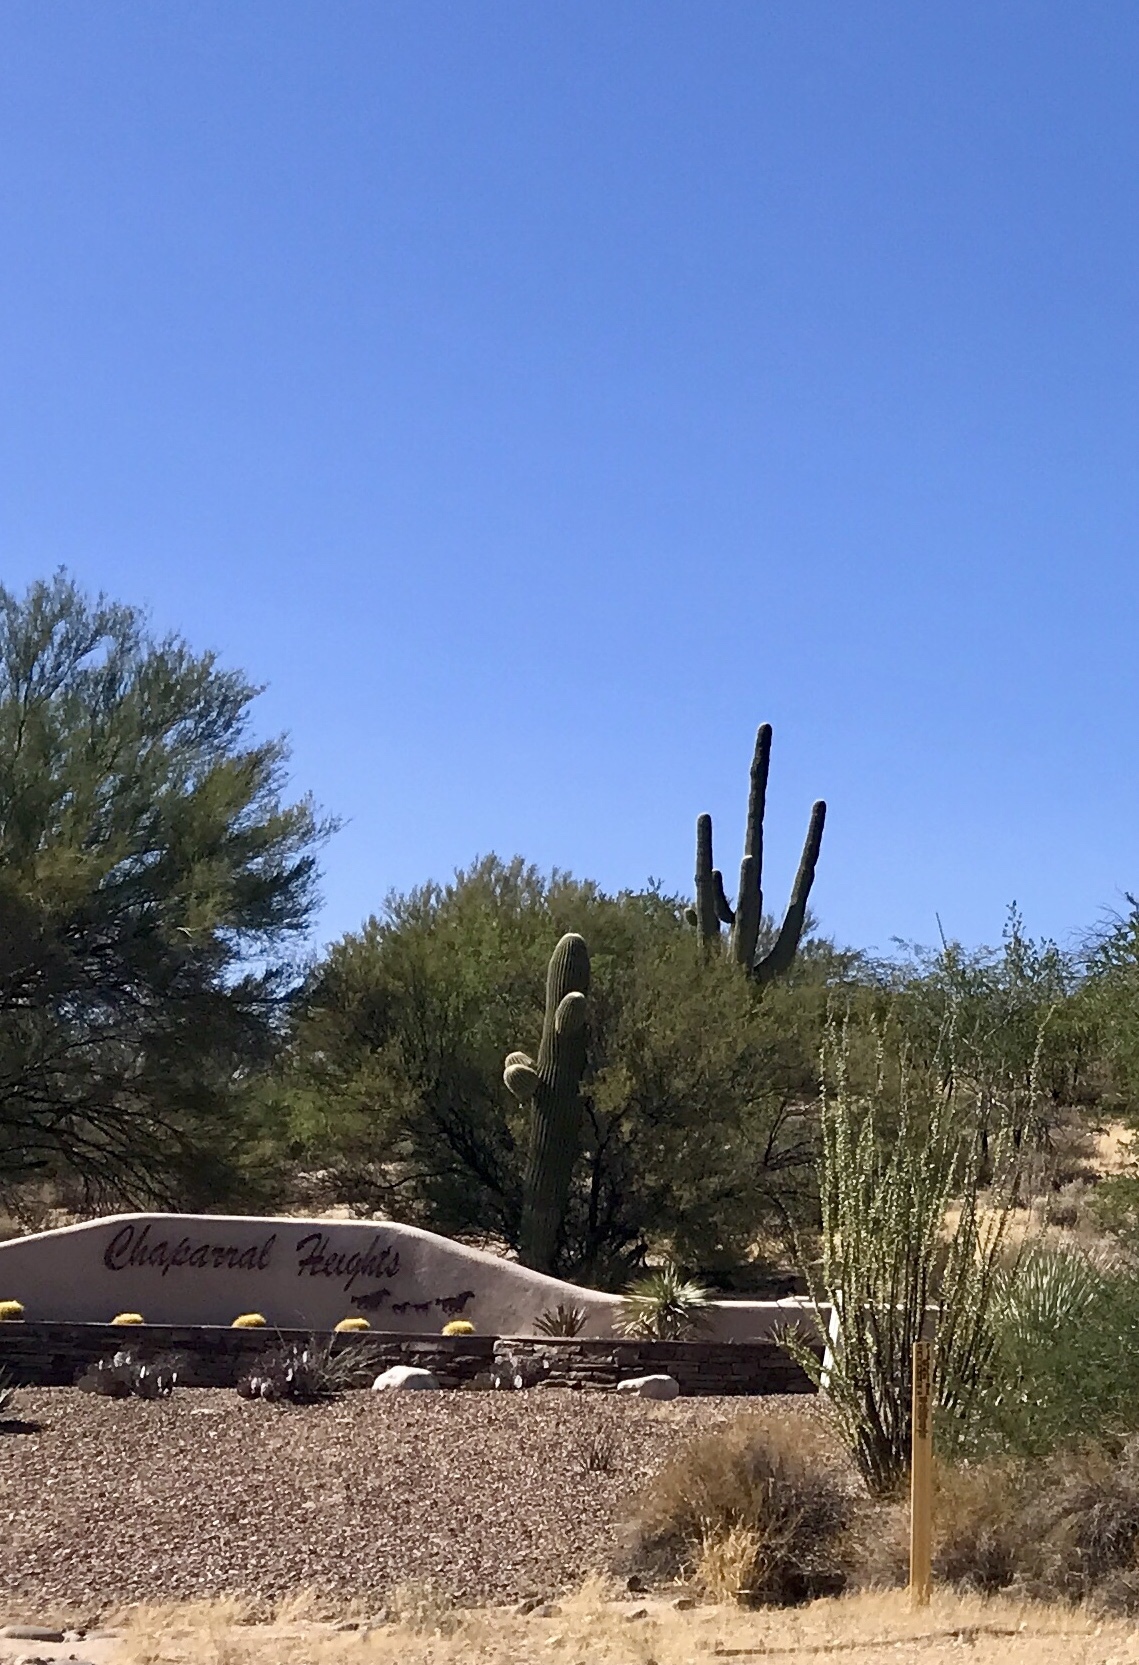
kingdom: Plantae
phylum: Tracheophyta
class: Magnoliopsida
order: Caryophyllales
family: Cactaceae
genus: Carnegiea
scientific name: Carnegiea gigantea
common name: Saguaro
